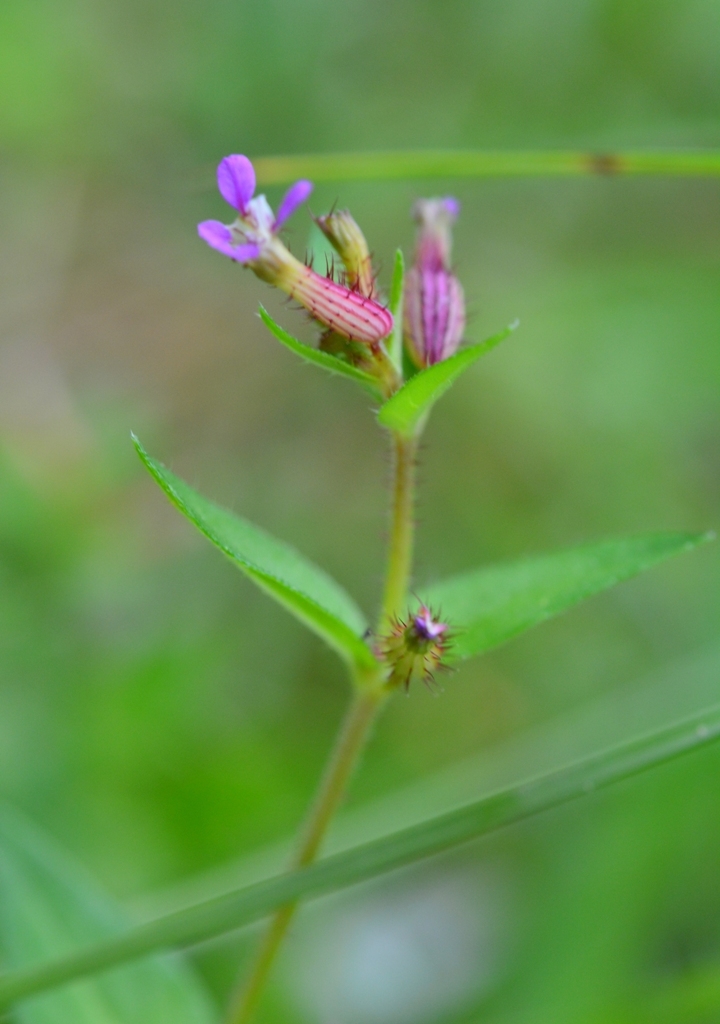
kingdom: Plantae
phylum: Tracheophyta
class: Magnoliopsida
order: Myrtales
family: Lythraceae
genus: Cuphea
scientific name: Cuphea wrightii
